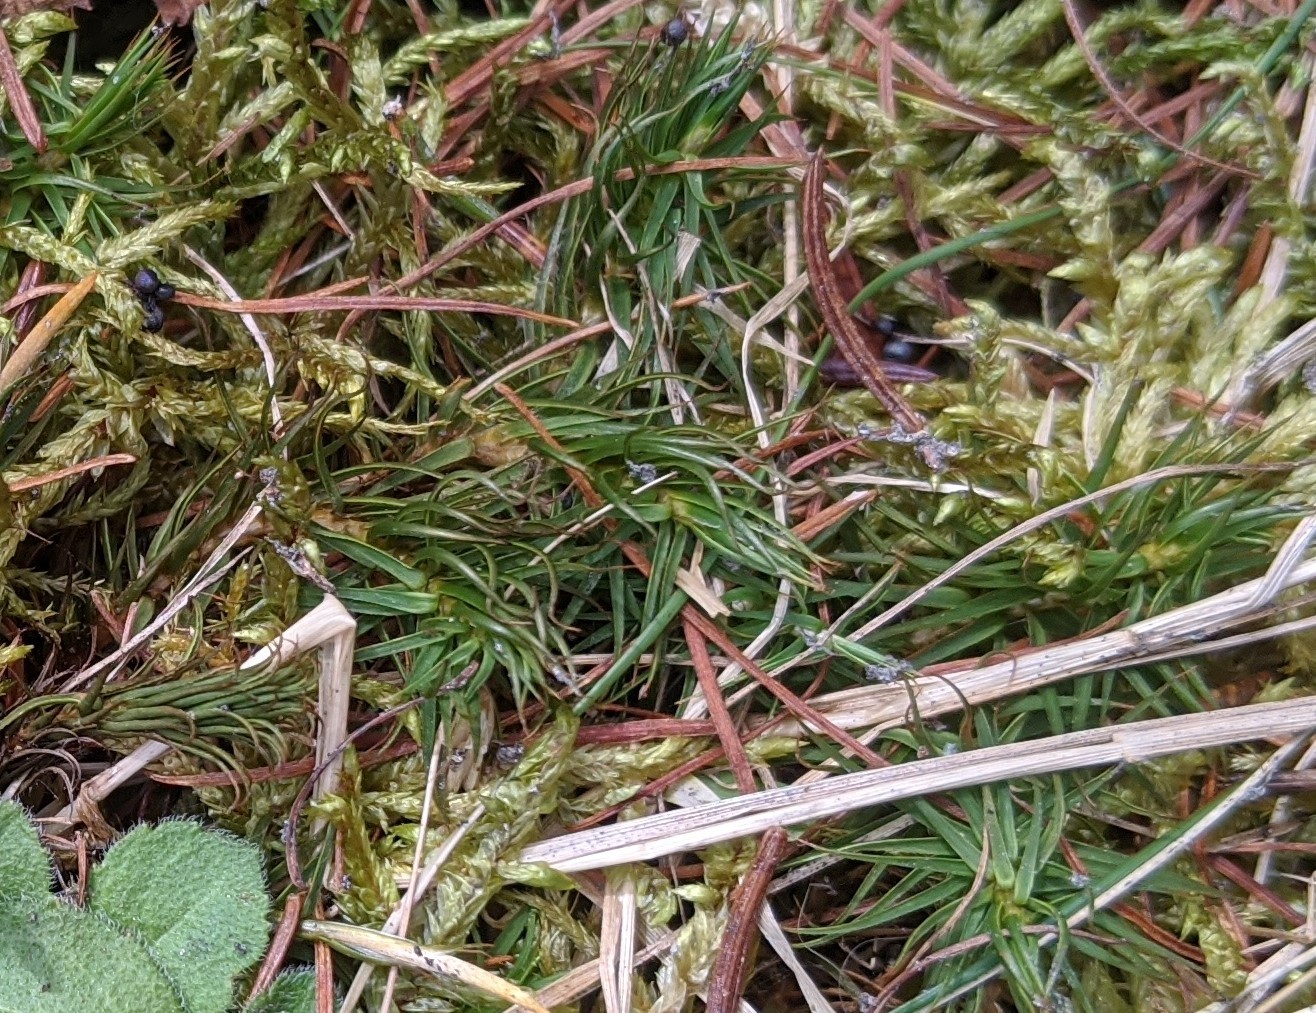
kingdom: Plantae
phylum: Bryophyta
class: Polytrichopsida
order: Polytrichales
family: Polytrichaceae
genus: Polytrichum
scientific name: Polytrichum juniperinum
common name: Juniper haircap moss
